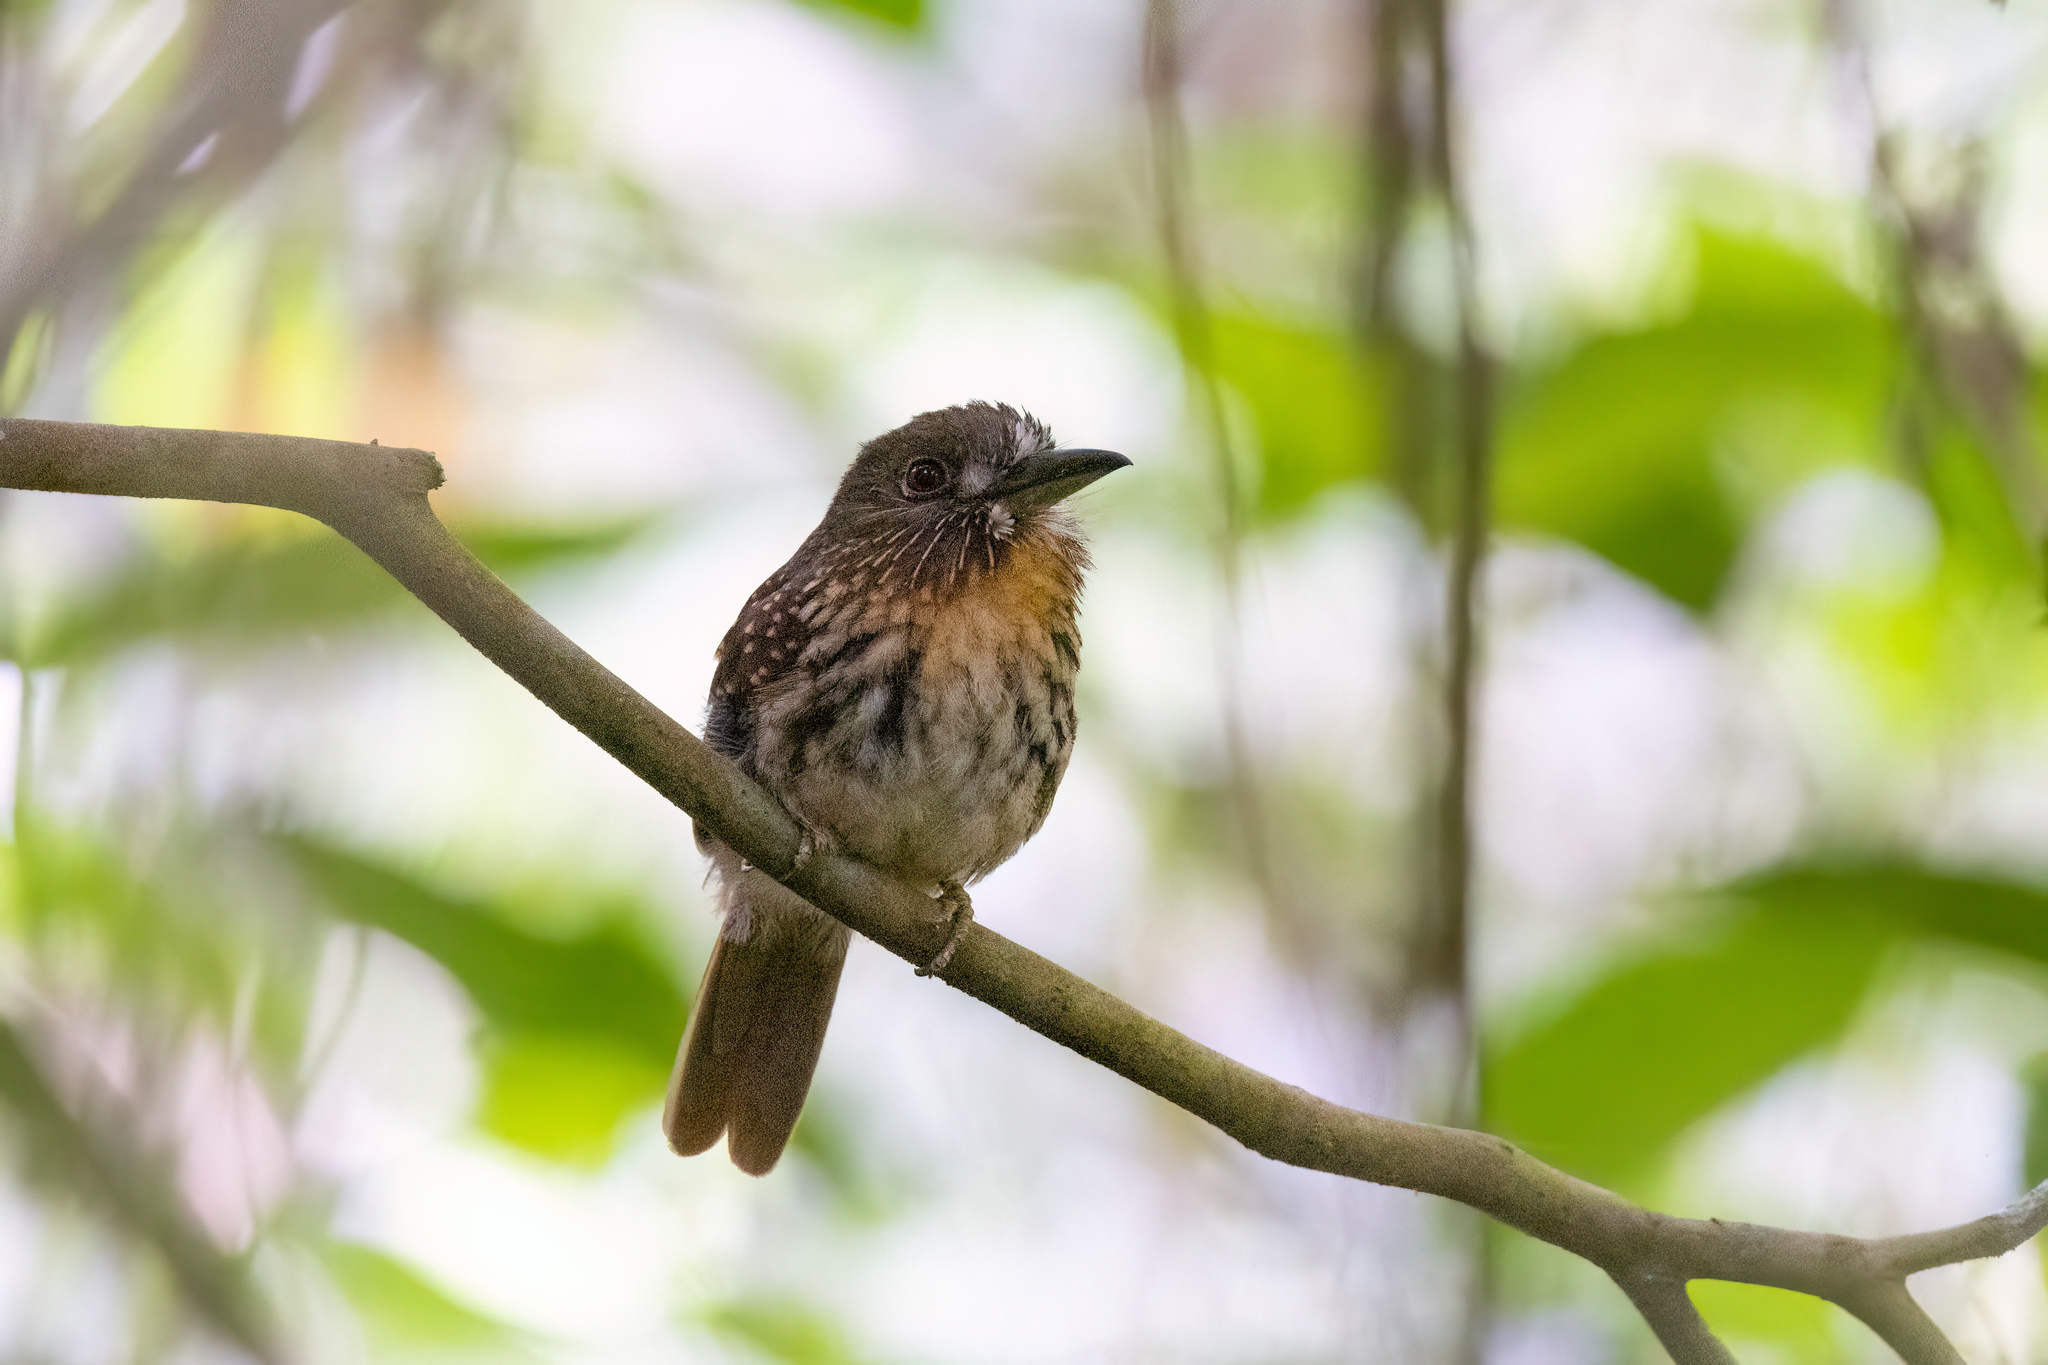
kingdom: Animalia
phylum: Chordata
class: Aves
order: Piciformes
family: Bucconidae
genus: Malacoptila
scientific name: Malacoptila panamensis
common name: White-whiskered puffbird
